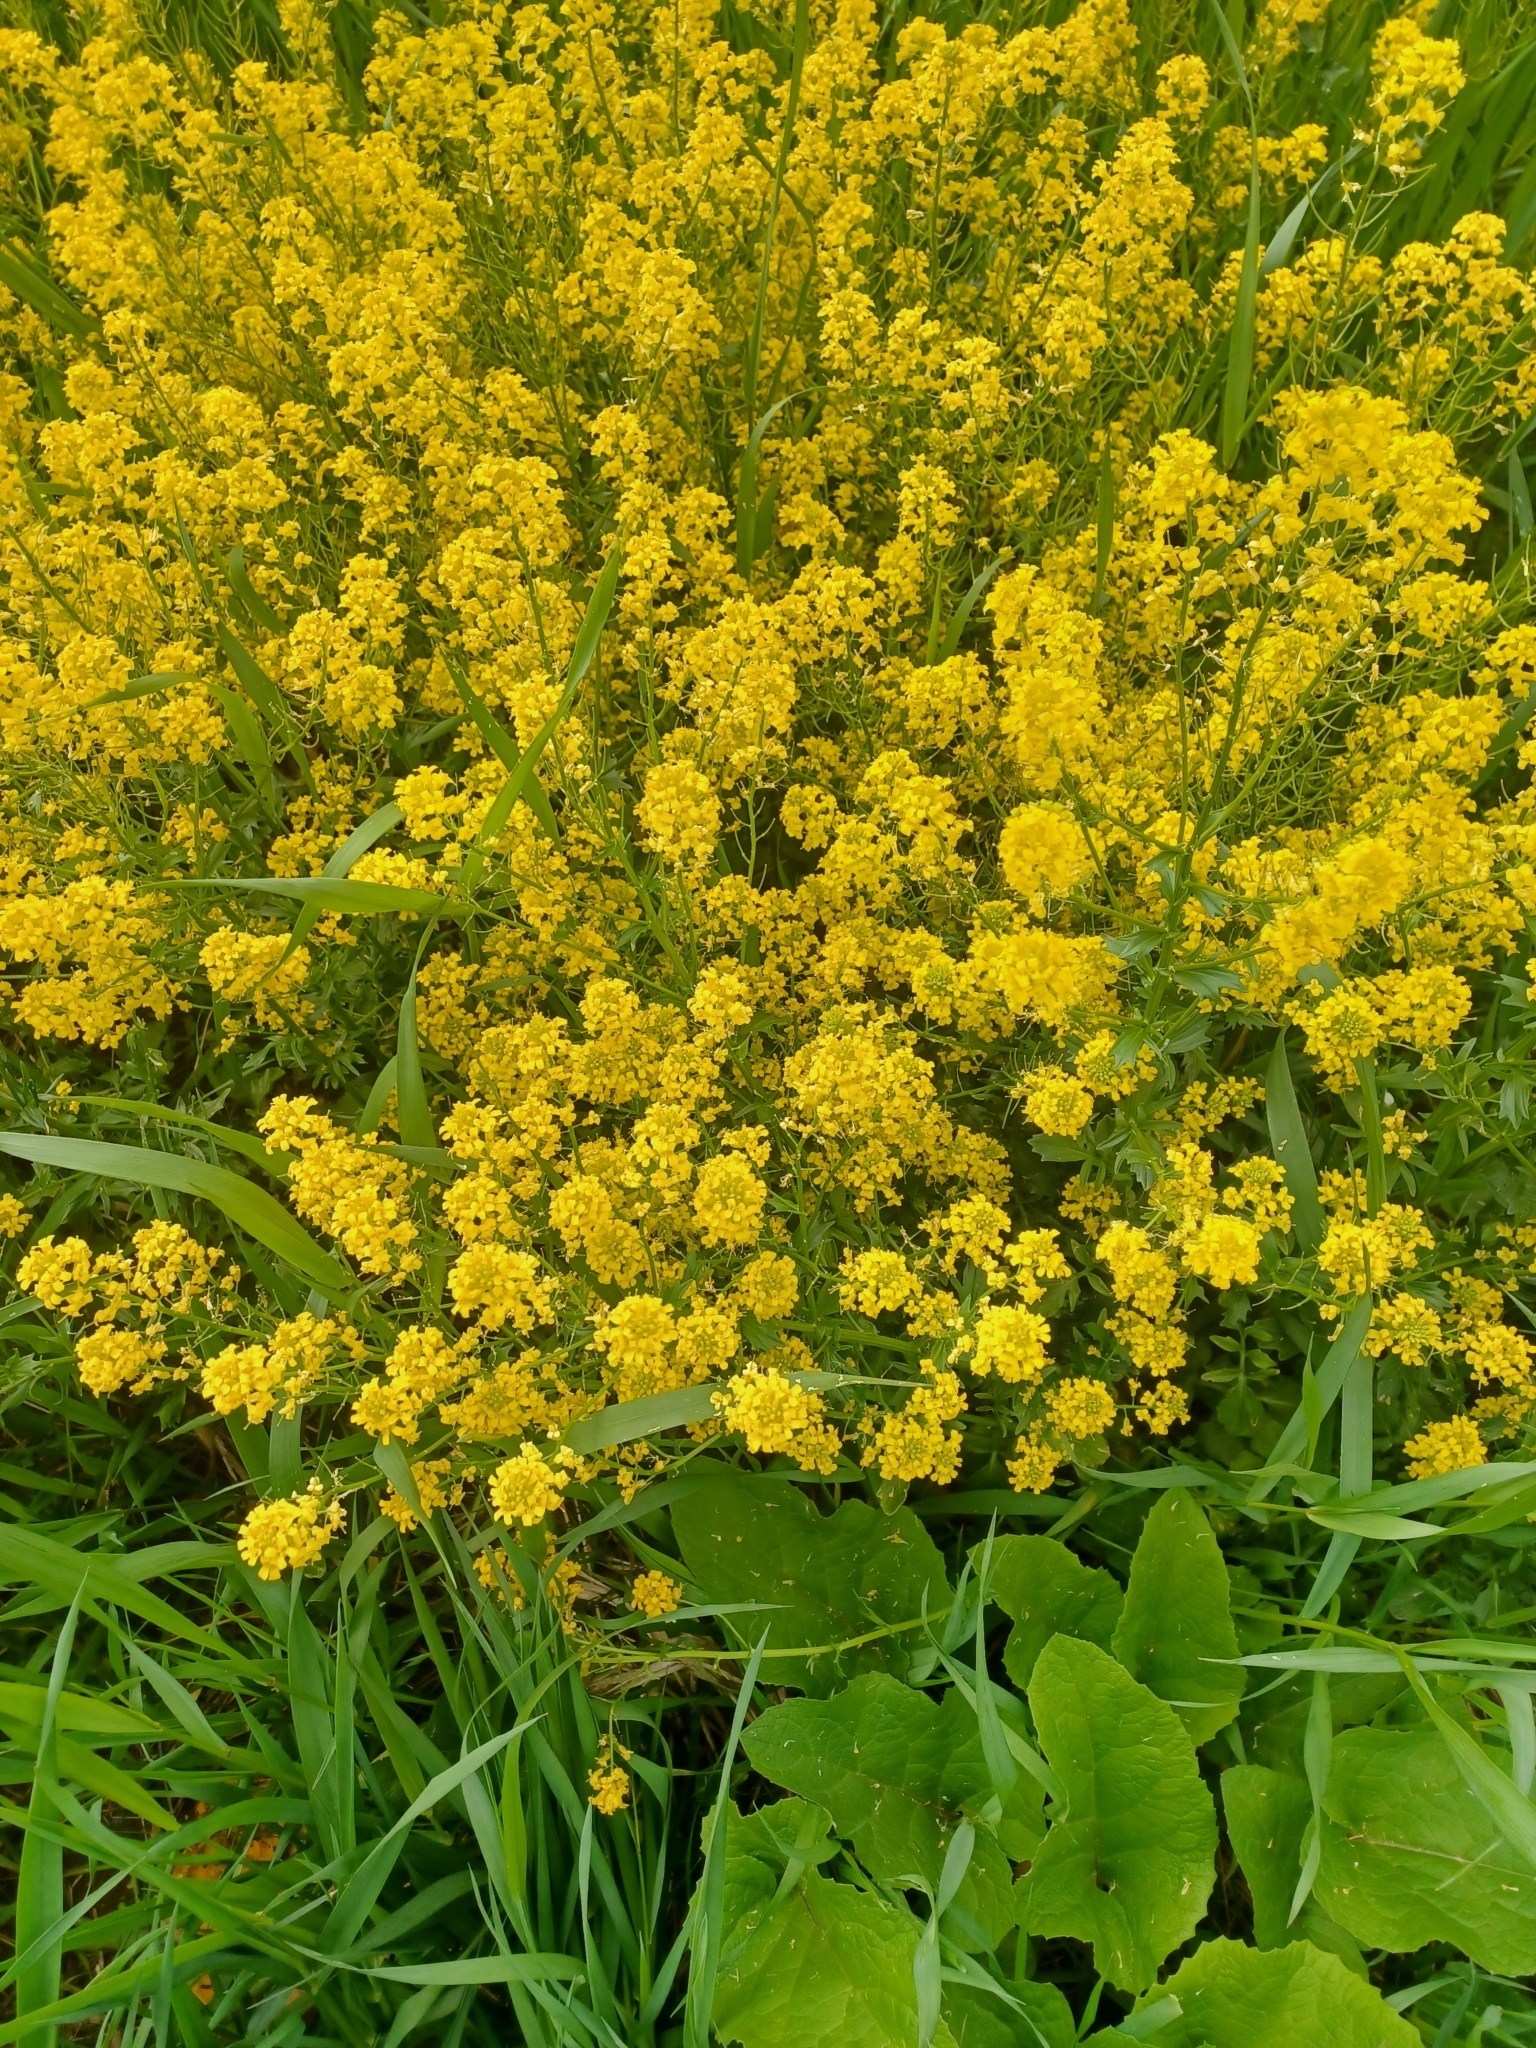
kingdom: Plantae
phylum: Tracheophyta
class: Magnoliopsida
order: Brassicales
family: Brassicaceae
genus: Brassica
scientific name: Brassica rapa
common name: Field mustard
